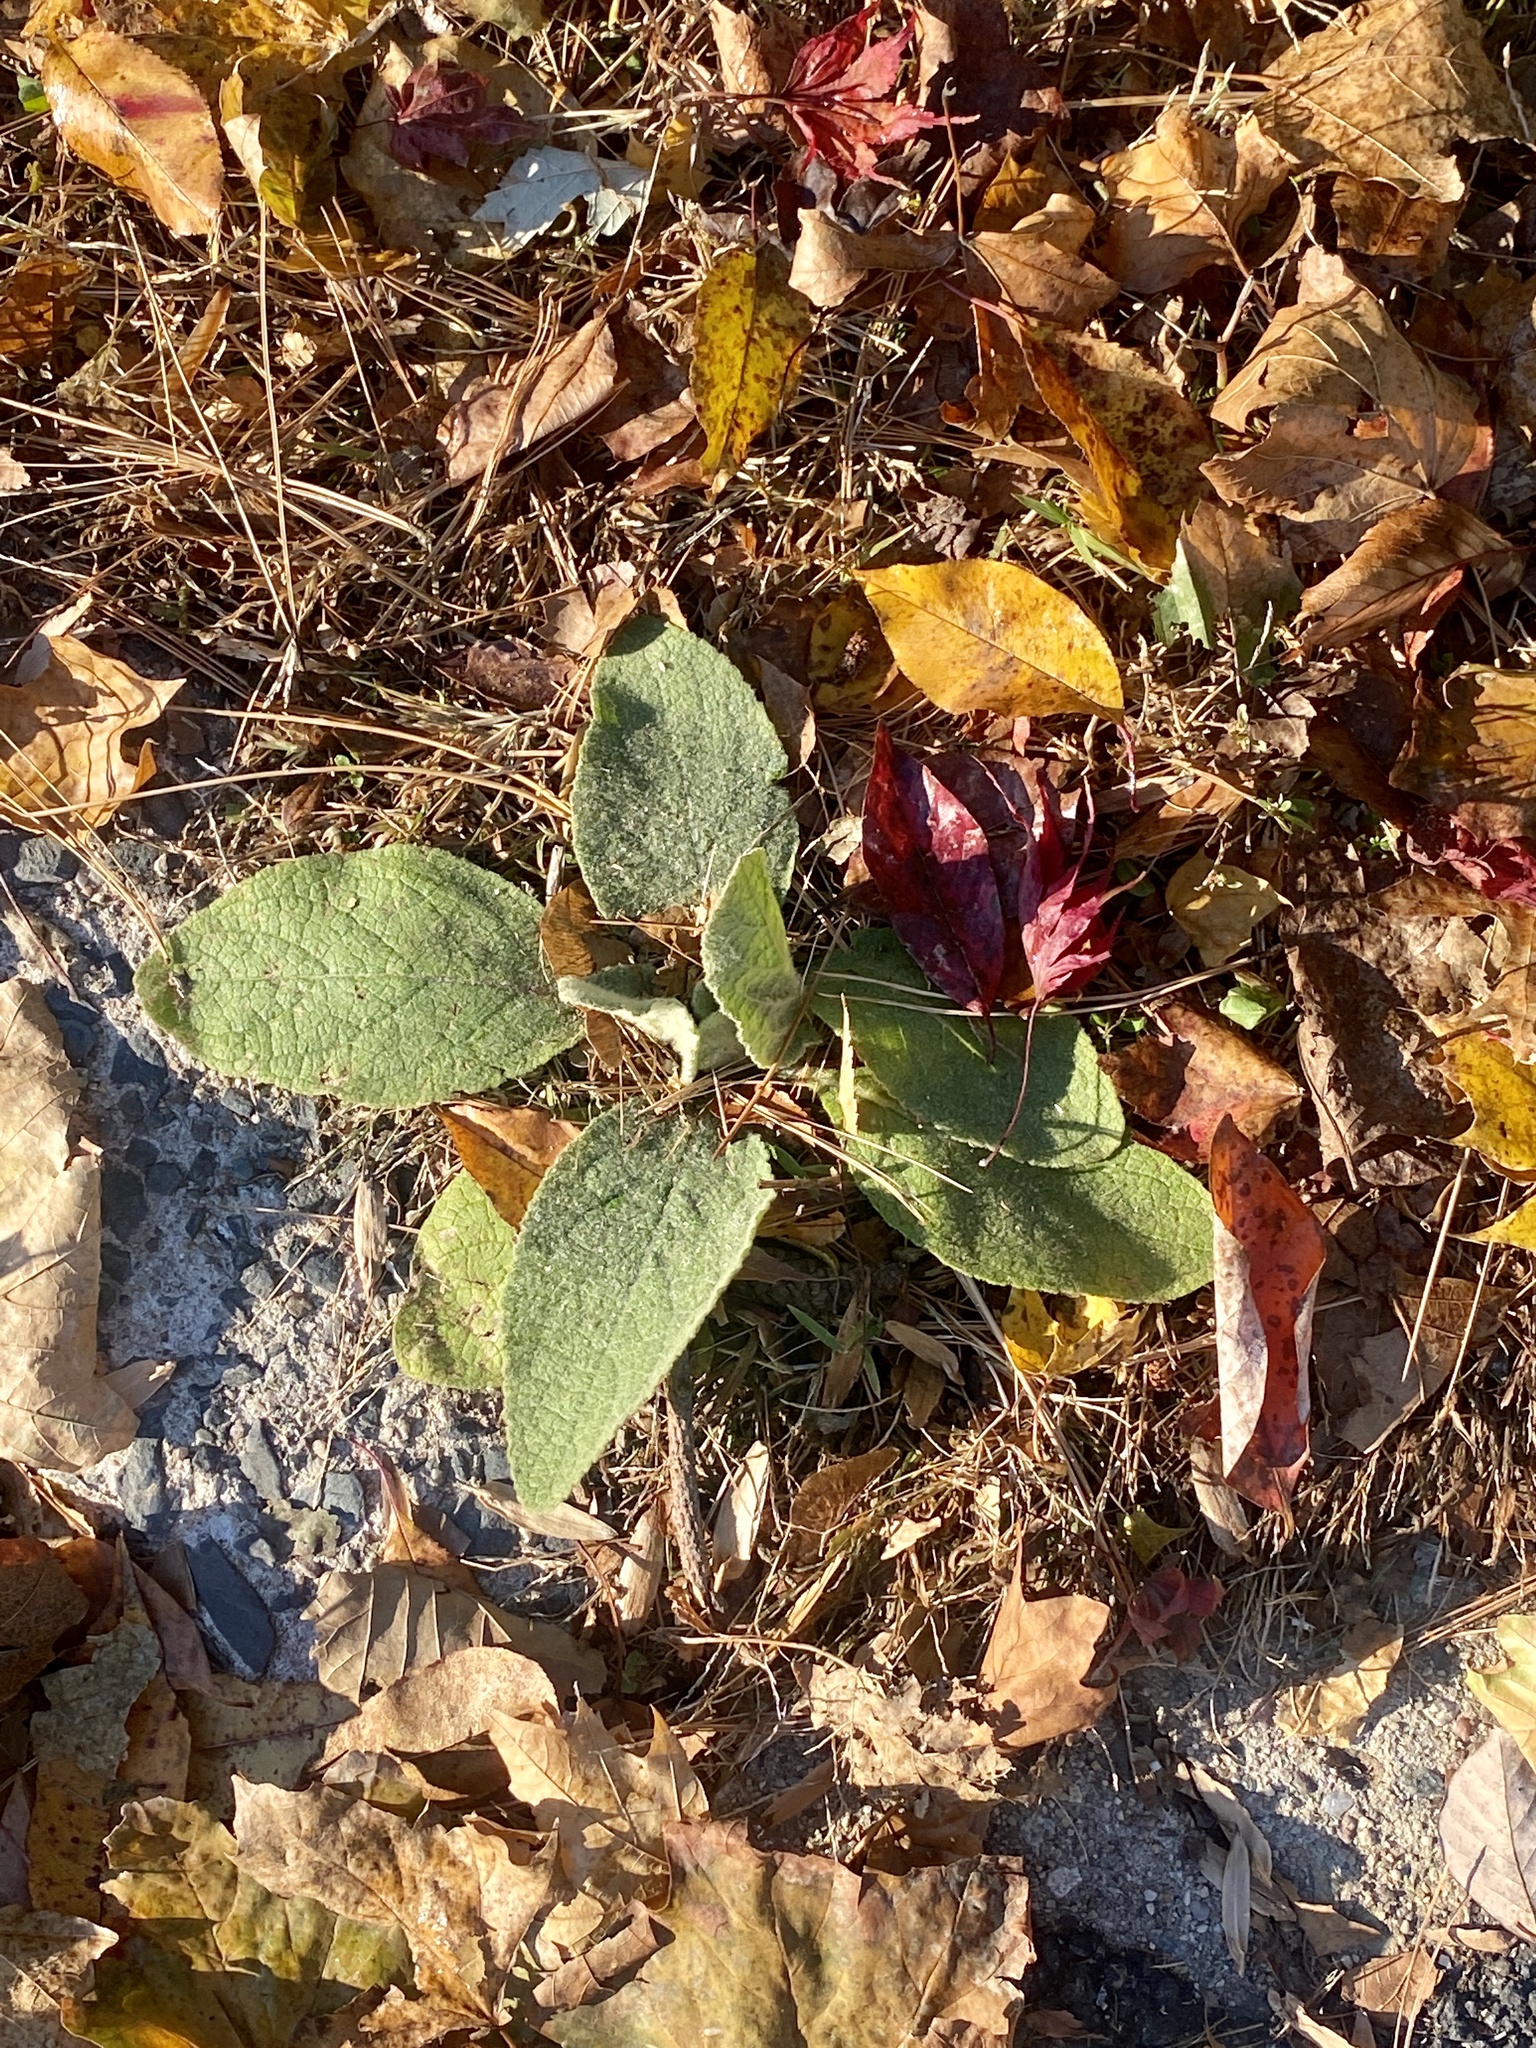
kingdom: Plantae
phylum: Tracheophyta
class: Magnoliopsida
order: Lamiales
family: Scrophulariaceae
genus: Verbascum
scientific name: Verbascum thapsus
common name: Common mullein
